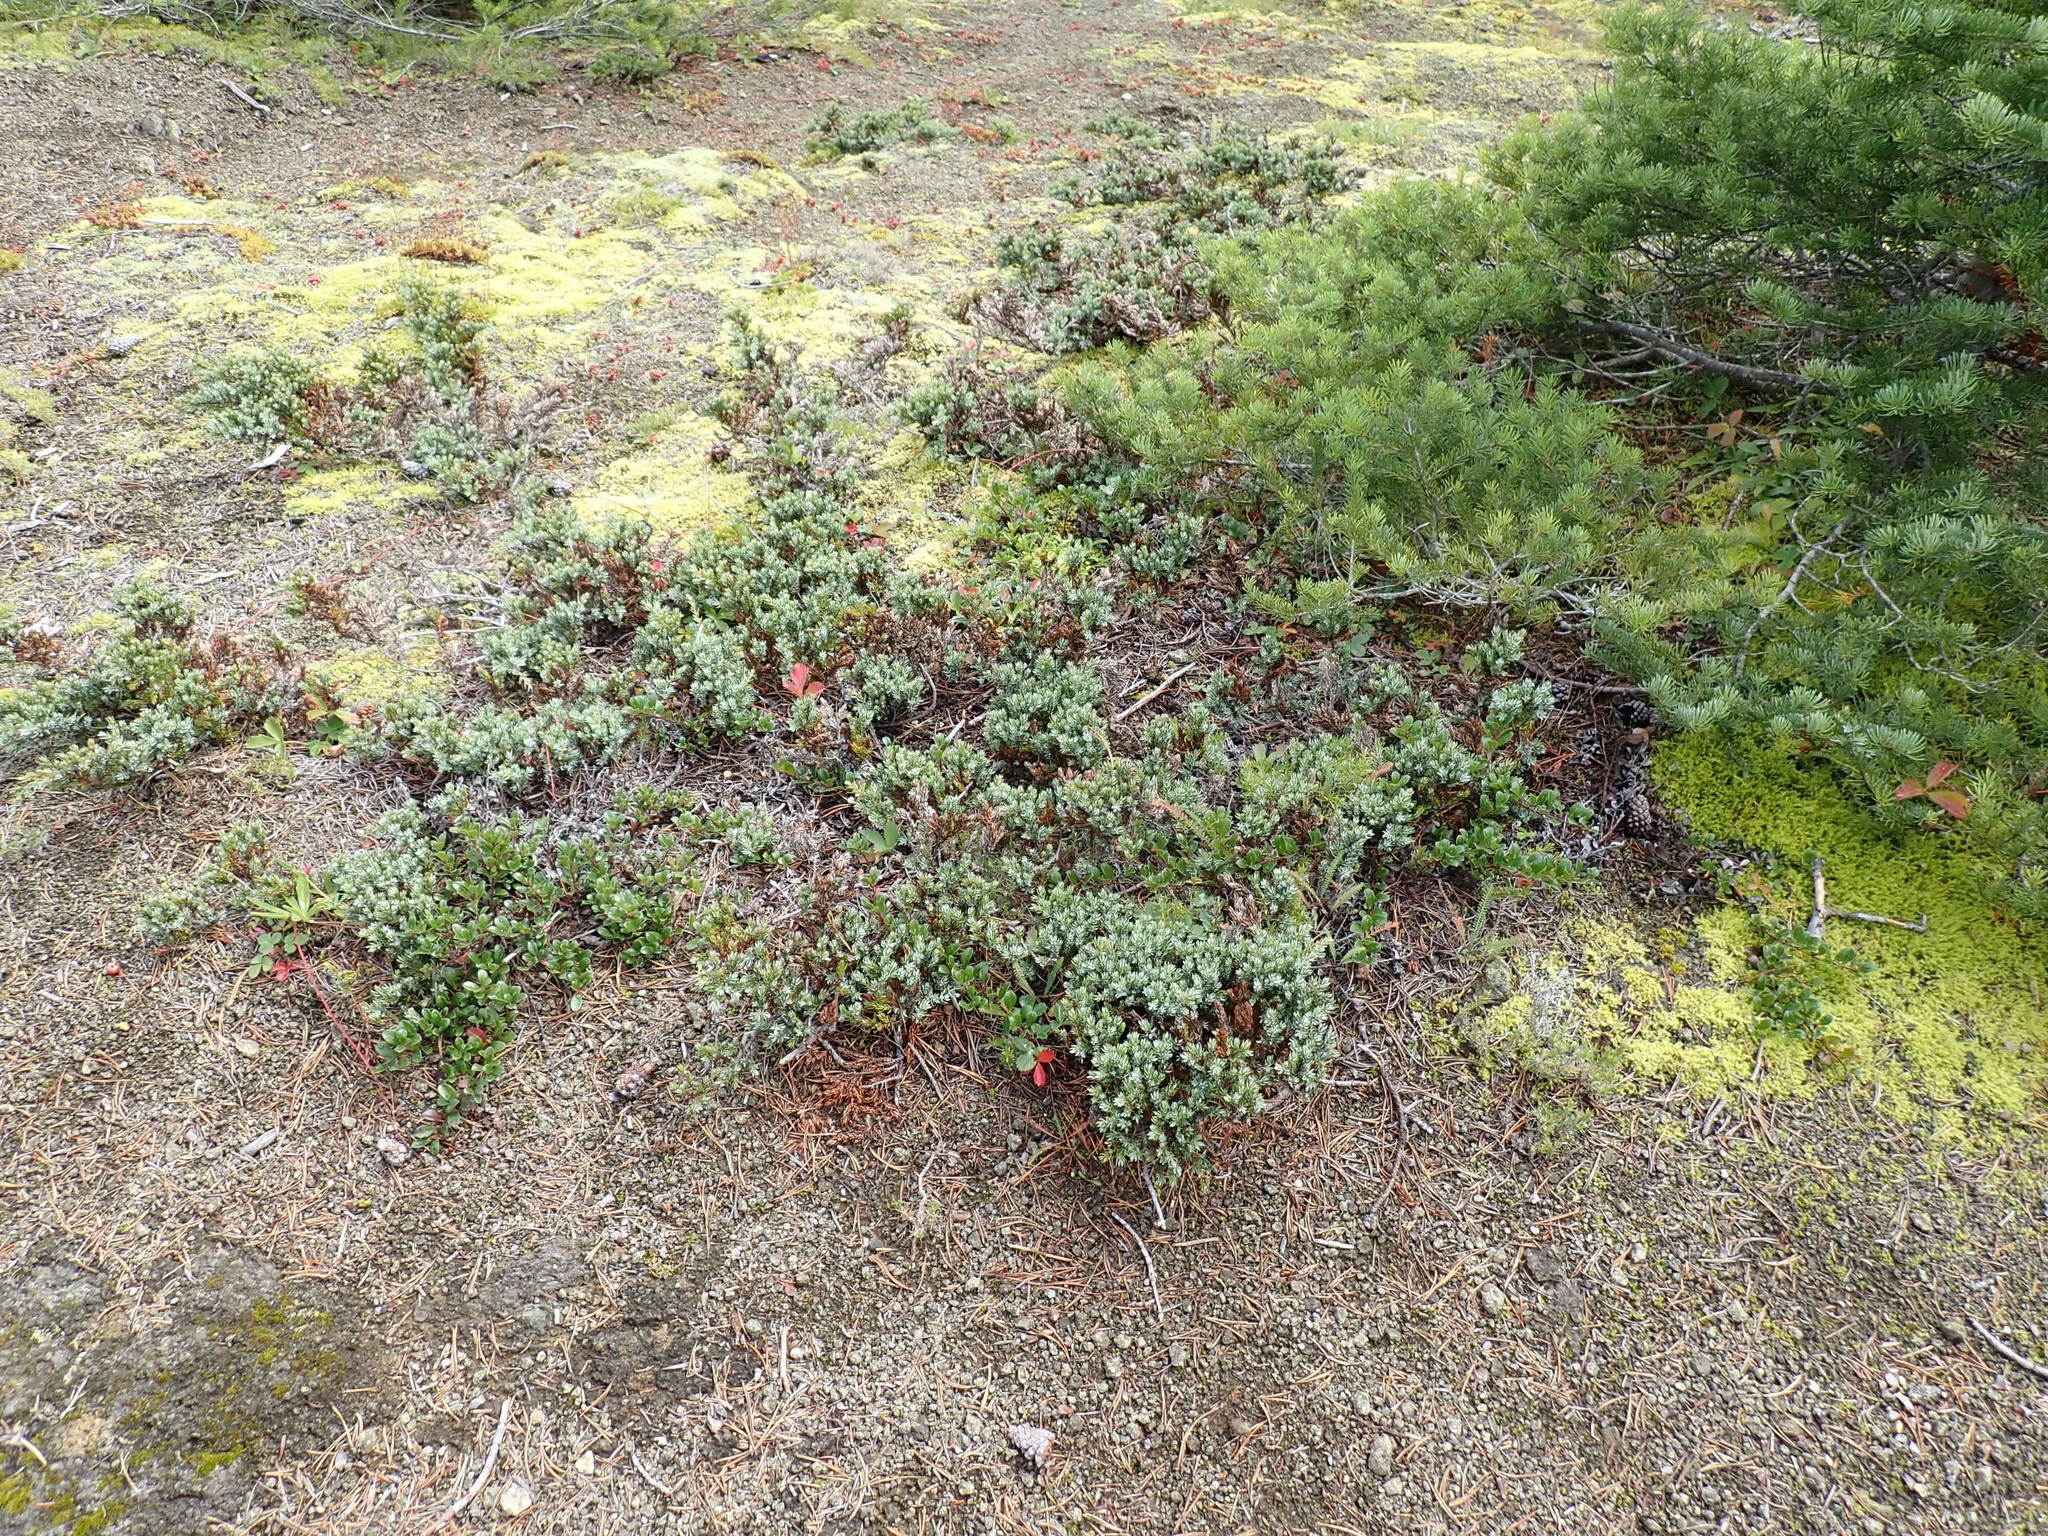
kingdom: Plantae
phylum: Tracheophyta
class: Pinopsida
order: Pinales
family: Cupressaceae
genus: Juniperus
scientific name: Juniperus communis
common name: Common juniper
